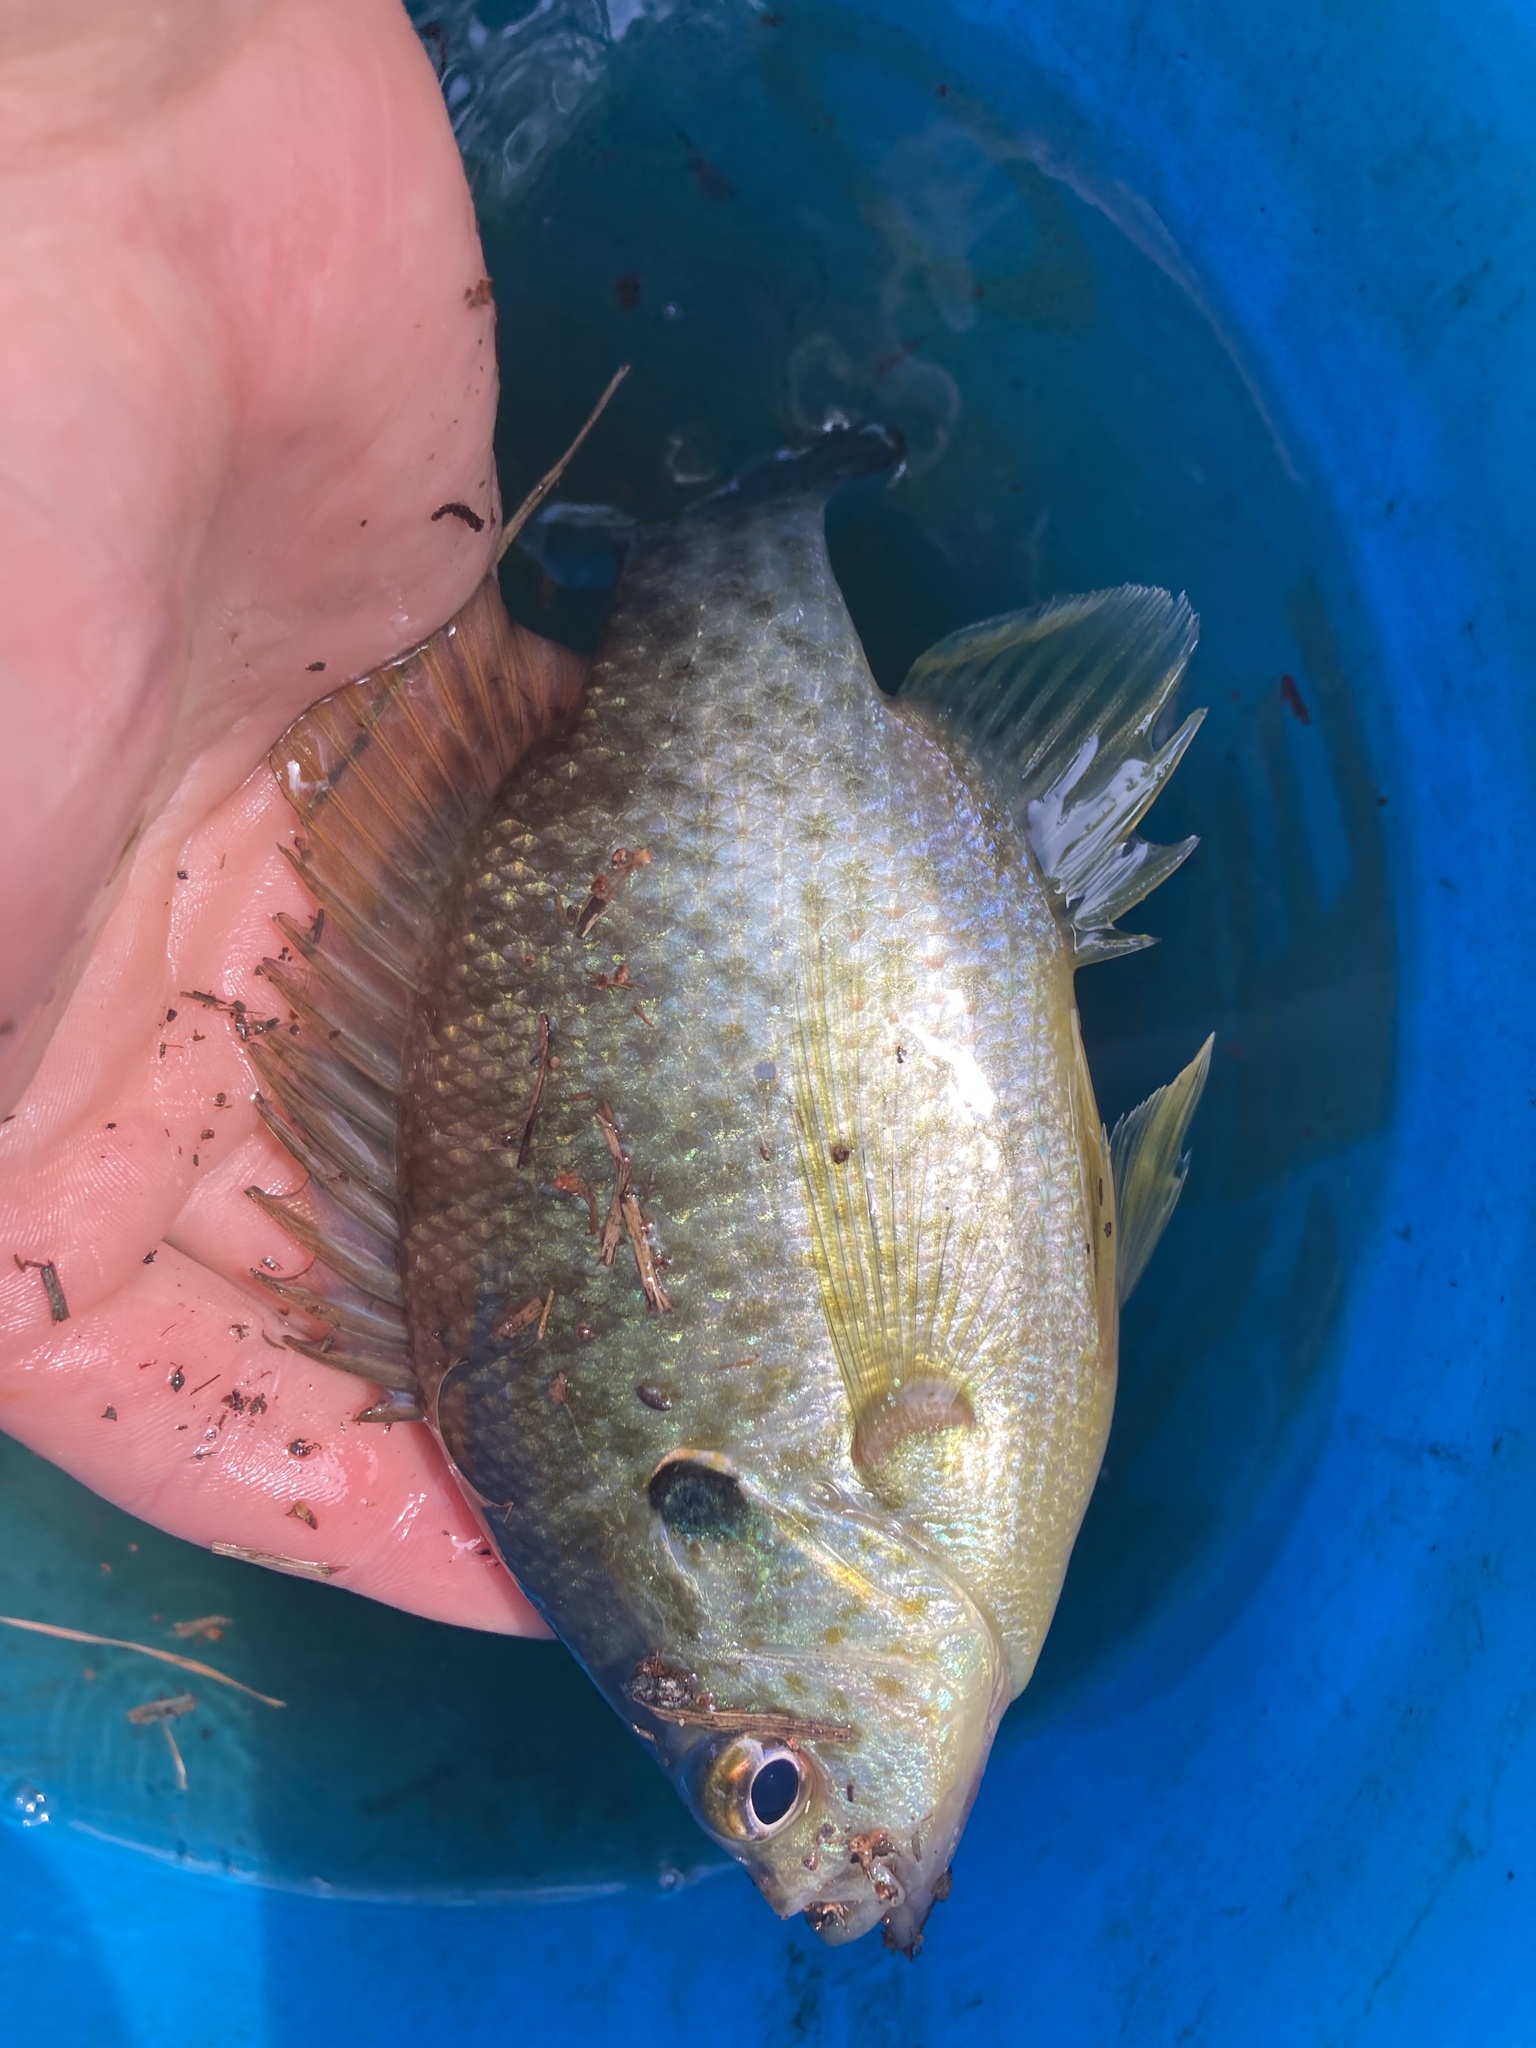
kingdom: Animalia
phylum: Chordata
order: Perciformes
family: Centrarchidae
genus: Lepomis
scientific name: Lepomis microlophus
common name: Redear sunfish
